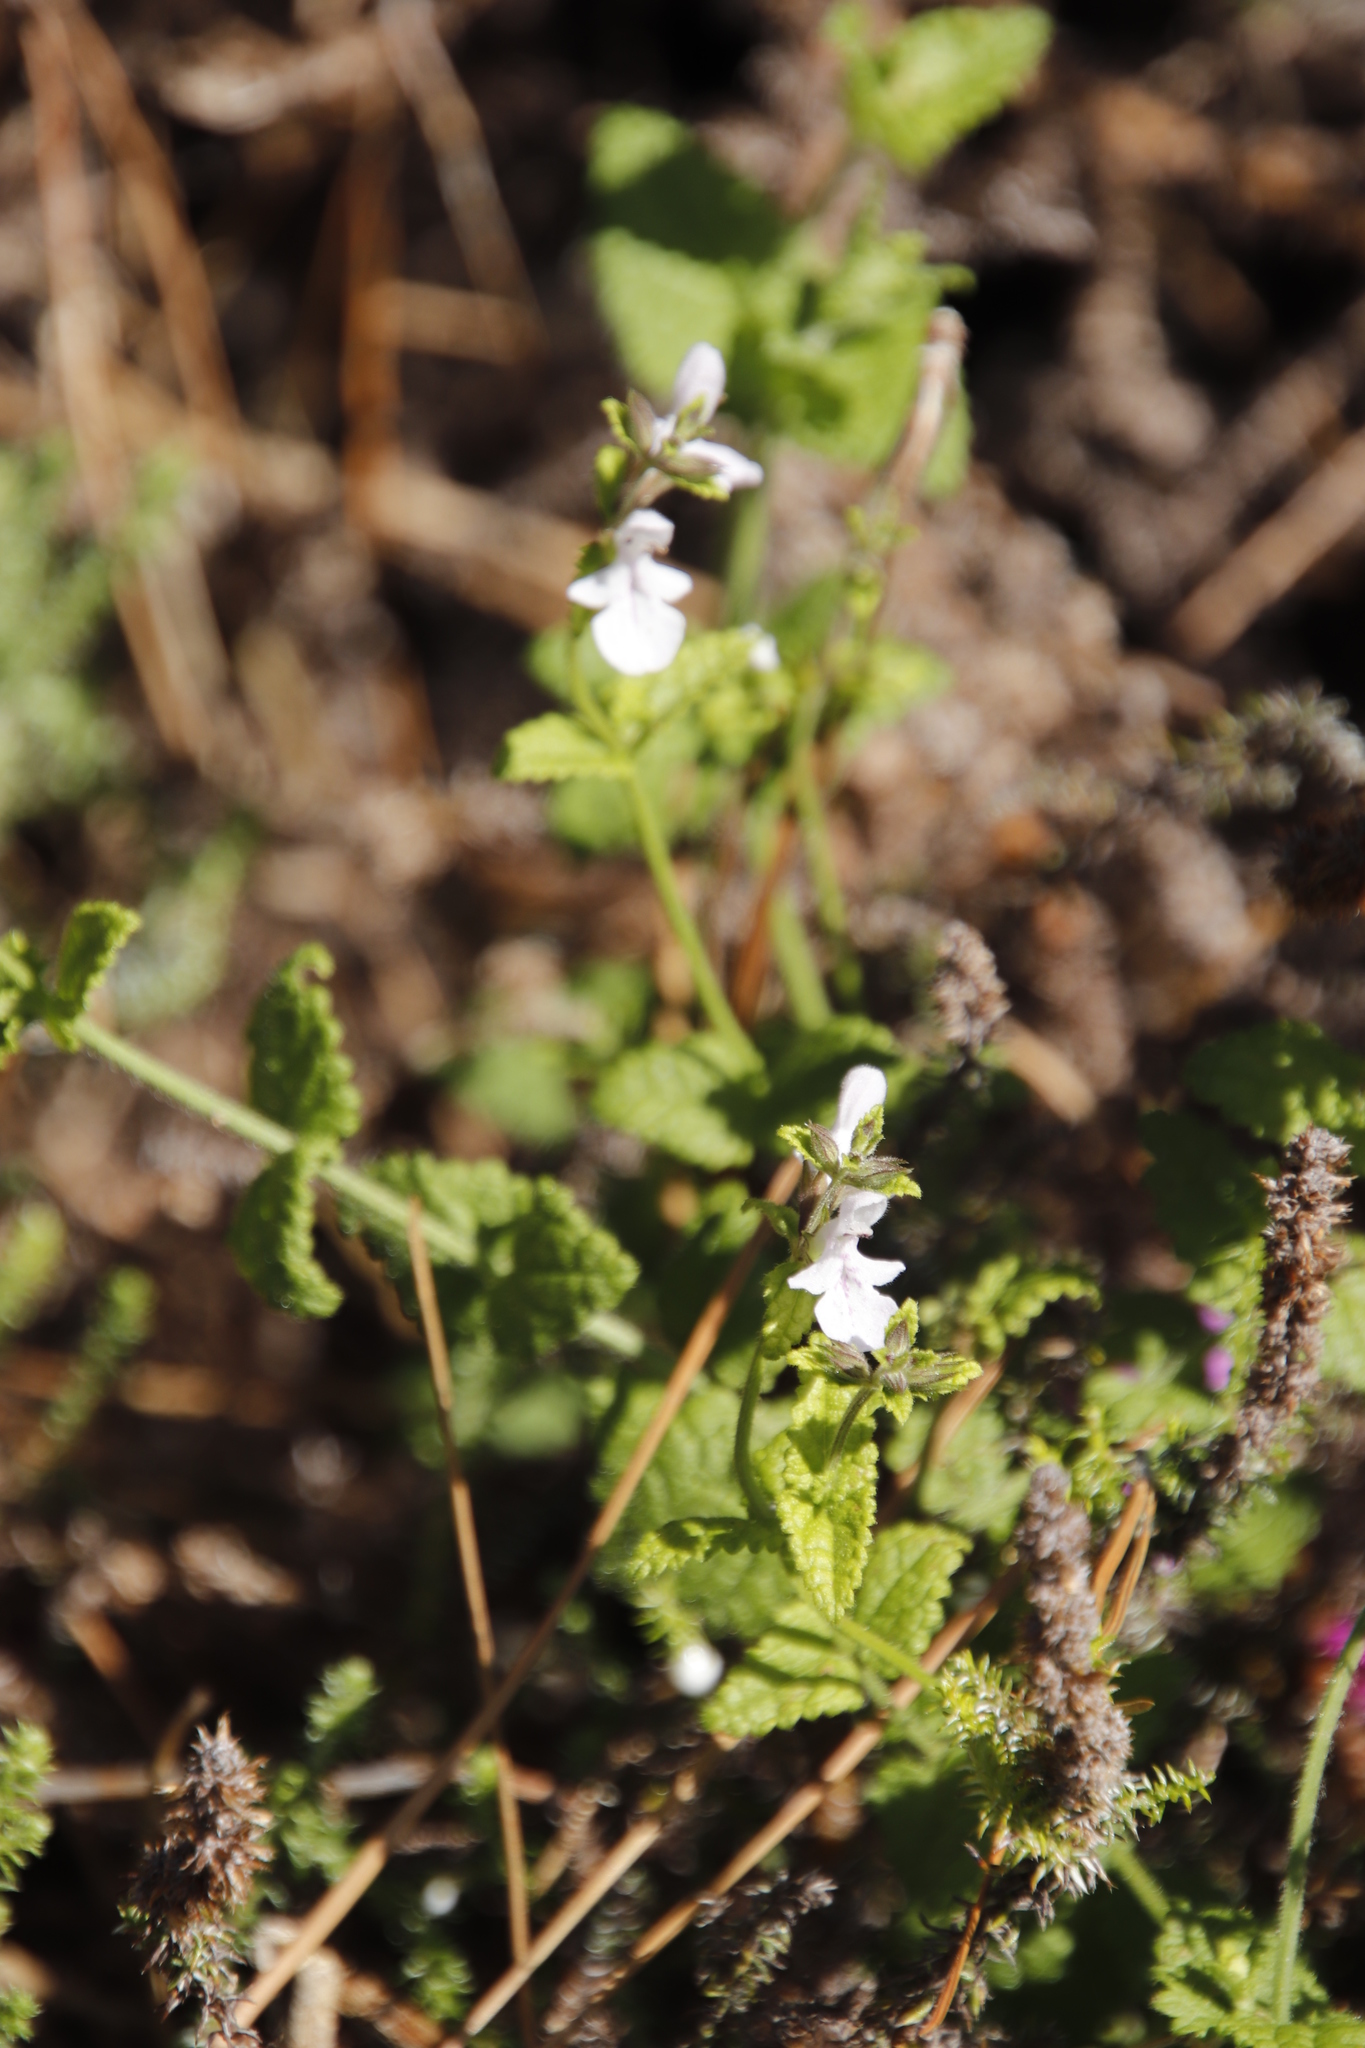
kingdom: Plantae
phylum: Tracheophyta
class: Magnoliopsida
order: Lamiales
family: Lamiaceae
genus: Stachys
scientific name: Stachys aethiopica
